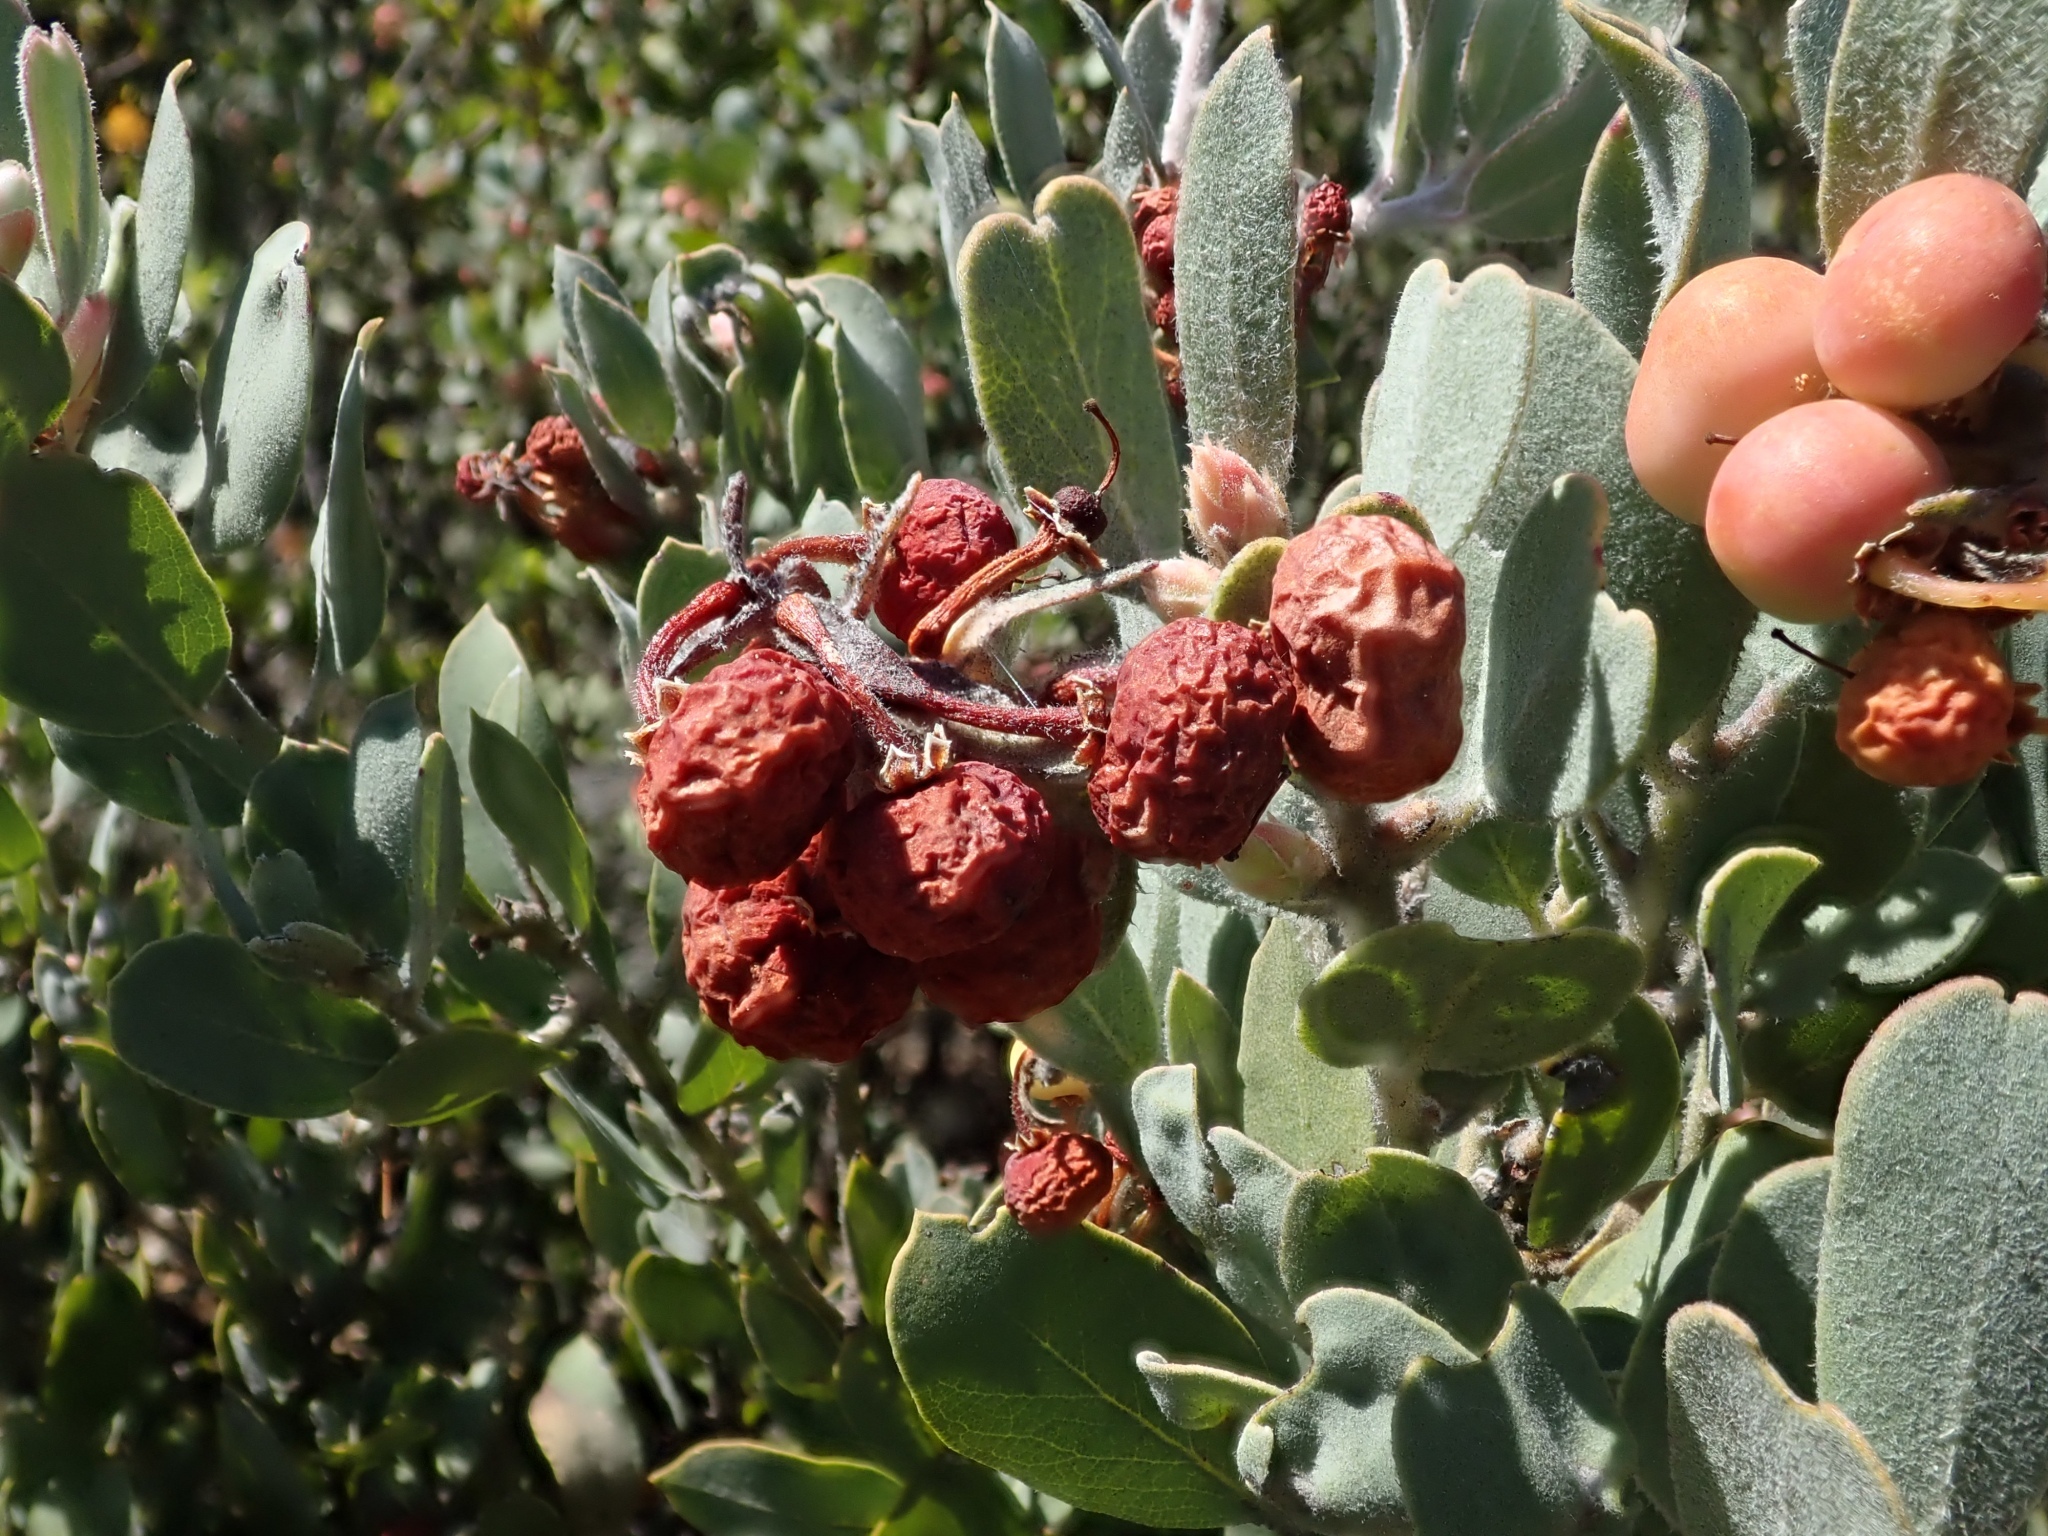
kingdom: Plantae
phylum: Tracheophyta
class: Magnoliopsida
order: Ericales
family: Ericaceae
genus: Arctostaphylos
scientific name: Arctostaphylos silvicola
